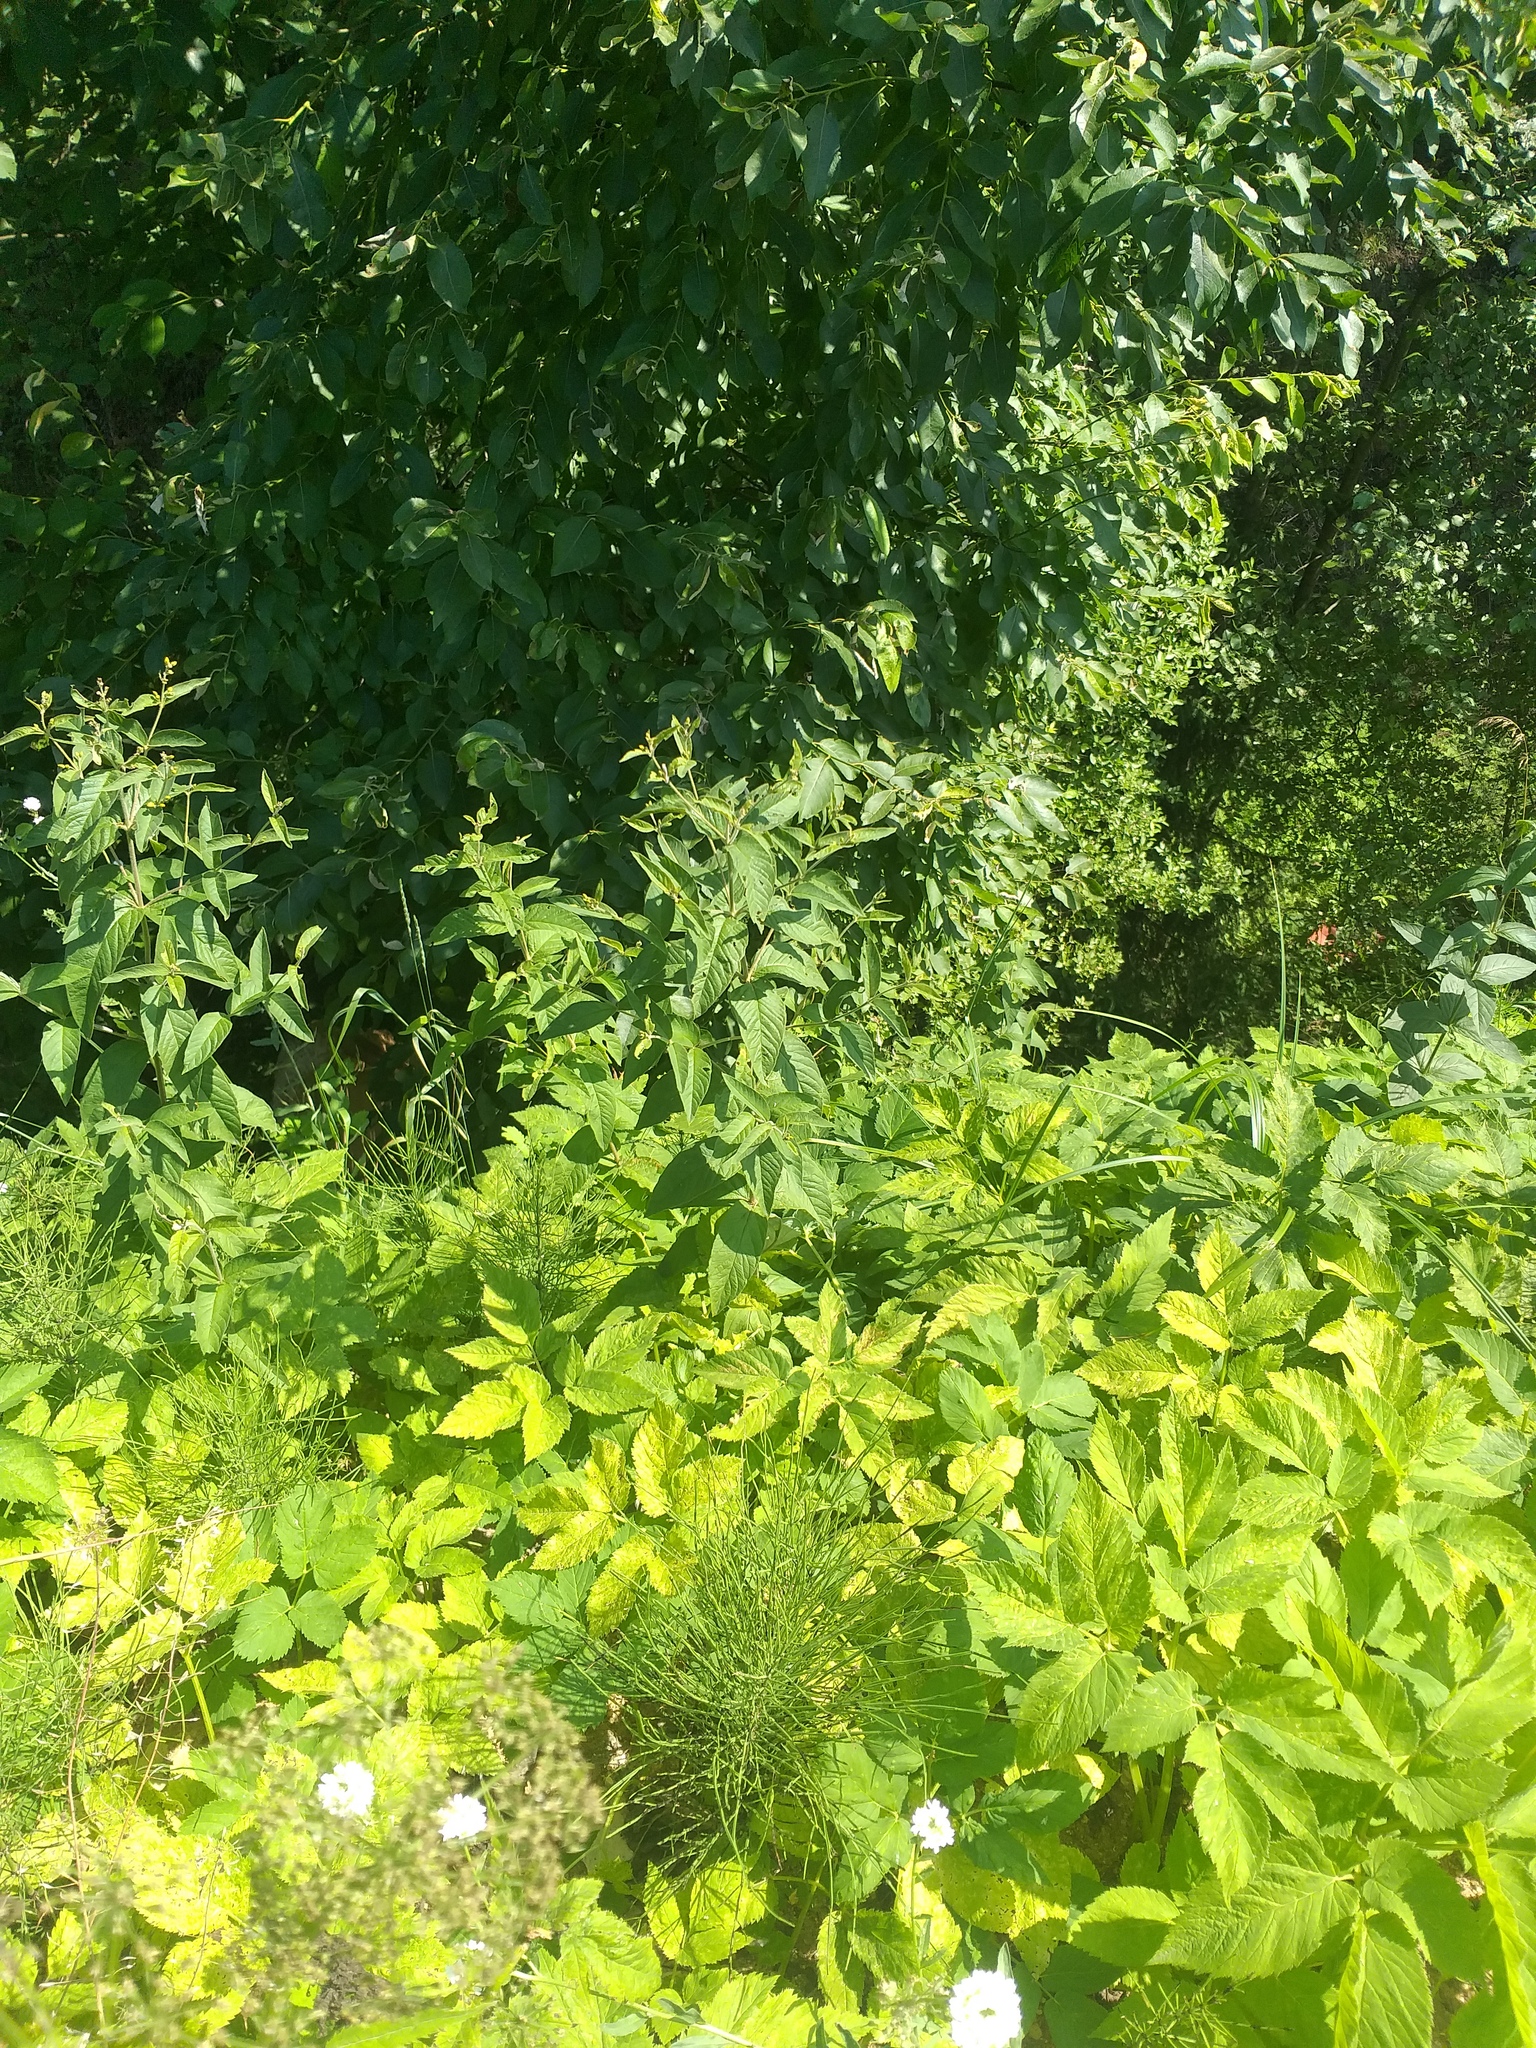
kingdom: Plantae
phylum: Tracheophyta
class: Magnoliopsida
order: Ericales
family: Primulaceae
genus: Lysimachia
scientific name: Lysimachia vulgaris
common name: Yellow loosestrife
